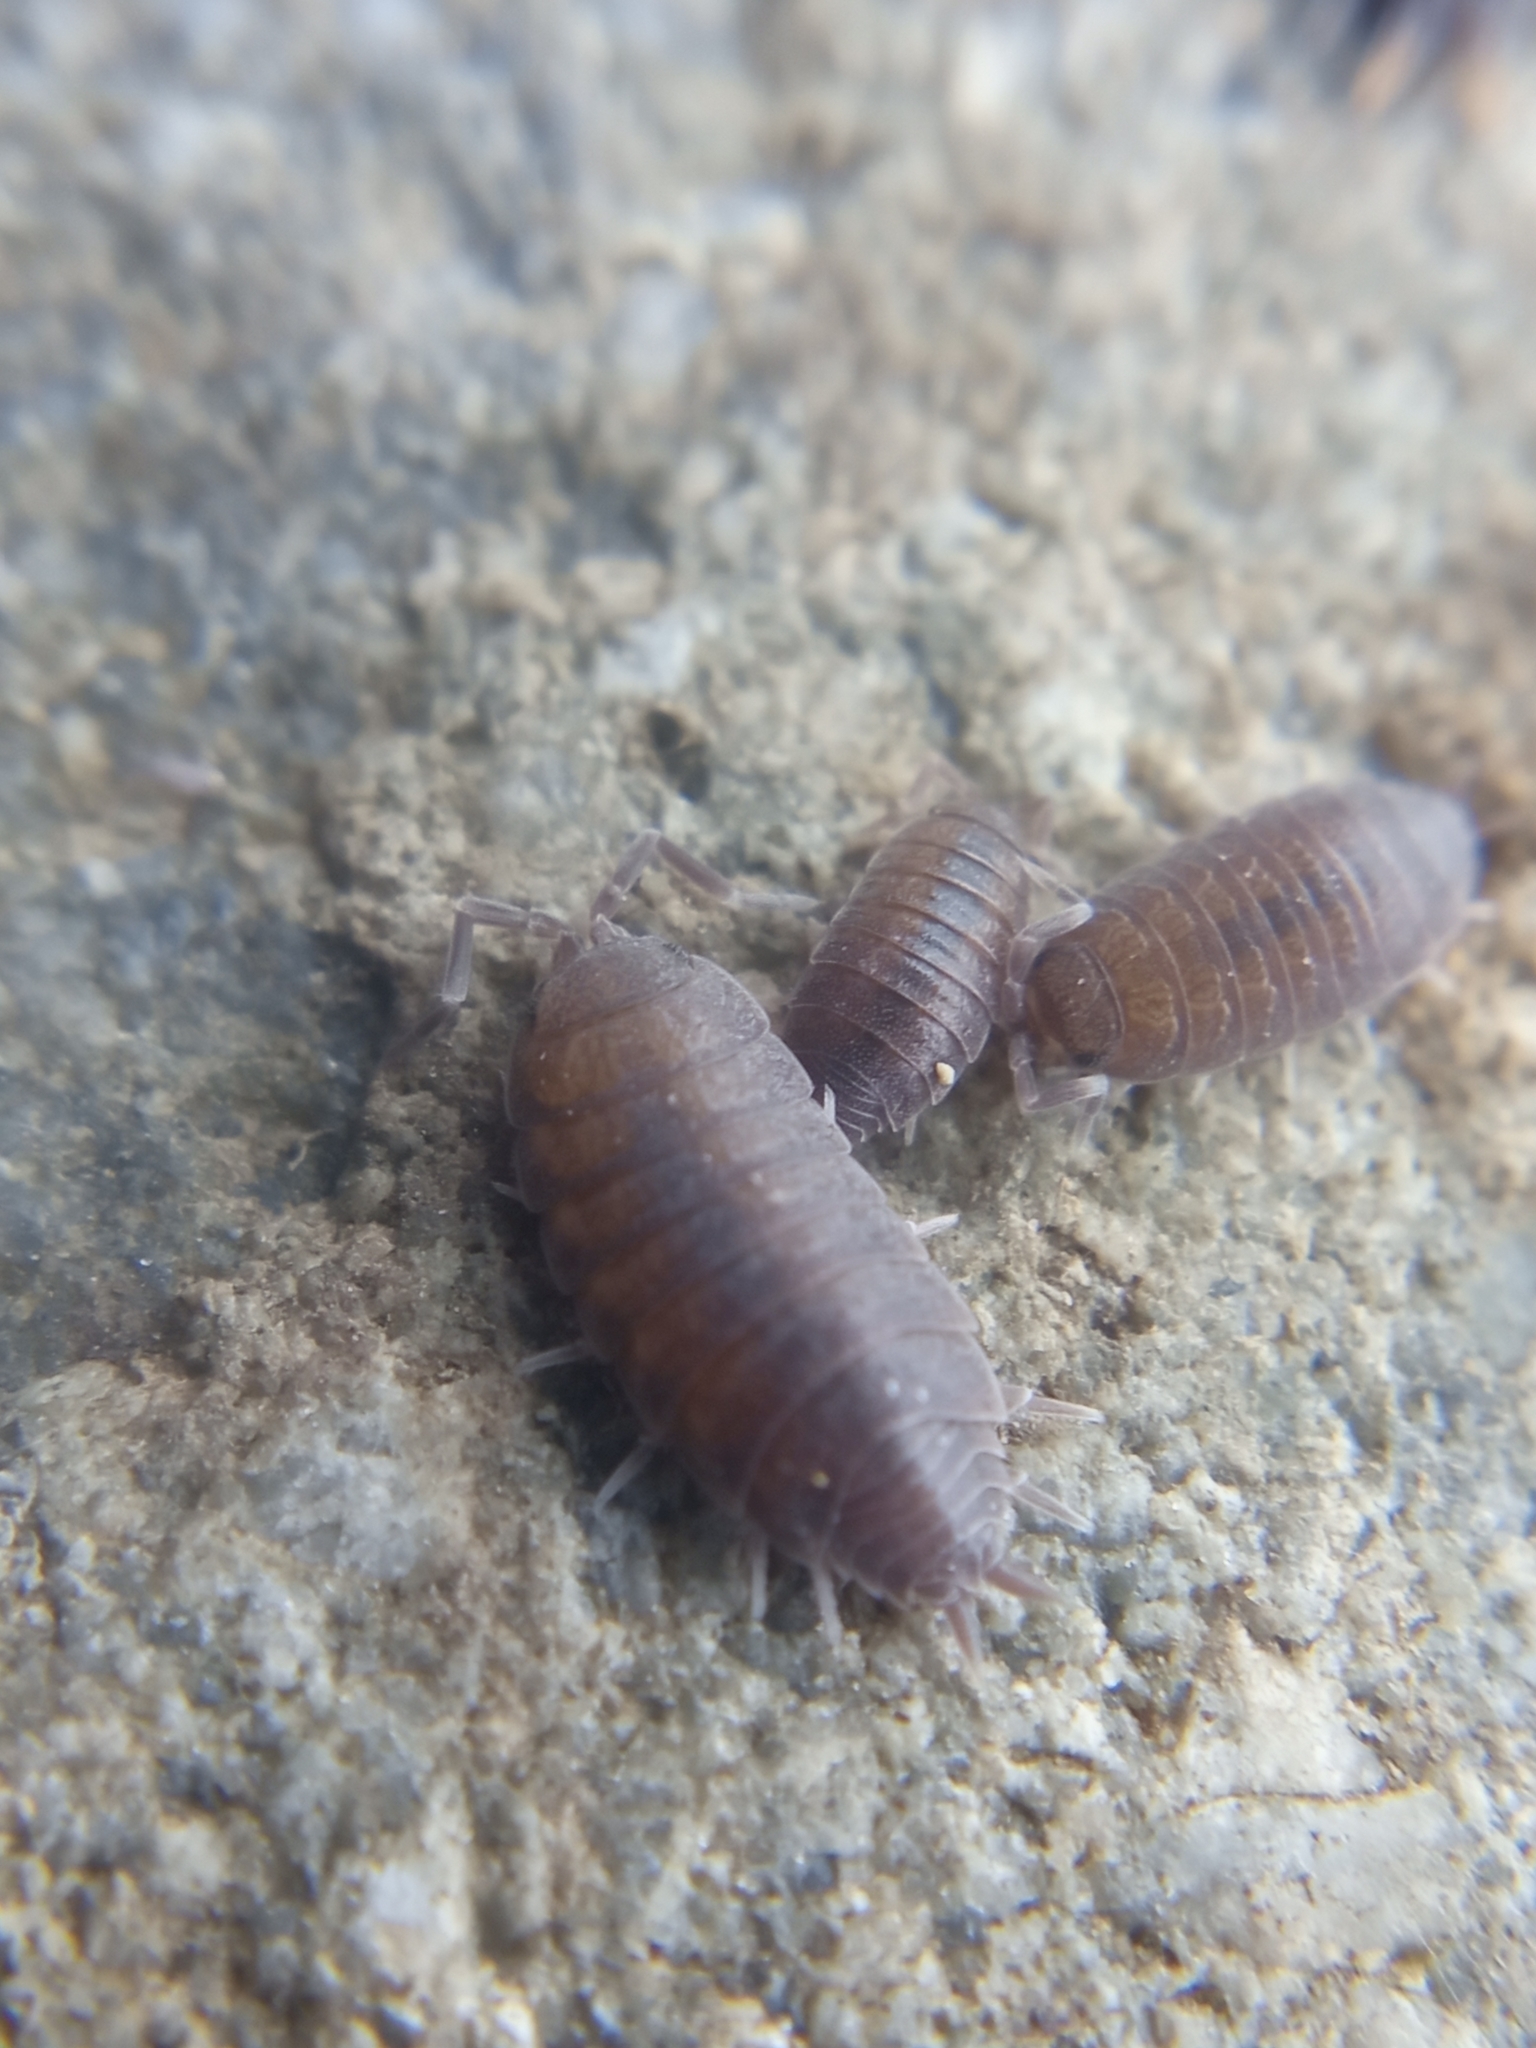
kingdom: Animalia
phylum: Arthropoda
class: Malacostraca
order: Isopoda
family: Porcellionidae
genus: Porcellionides
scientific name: Porcellionides pruinosus
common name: Plum woodlouse
